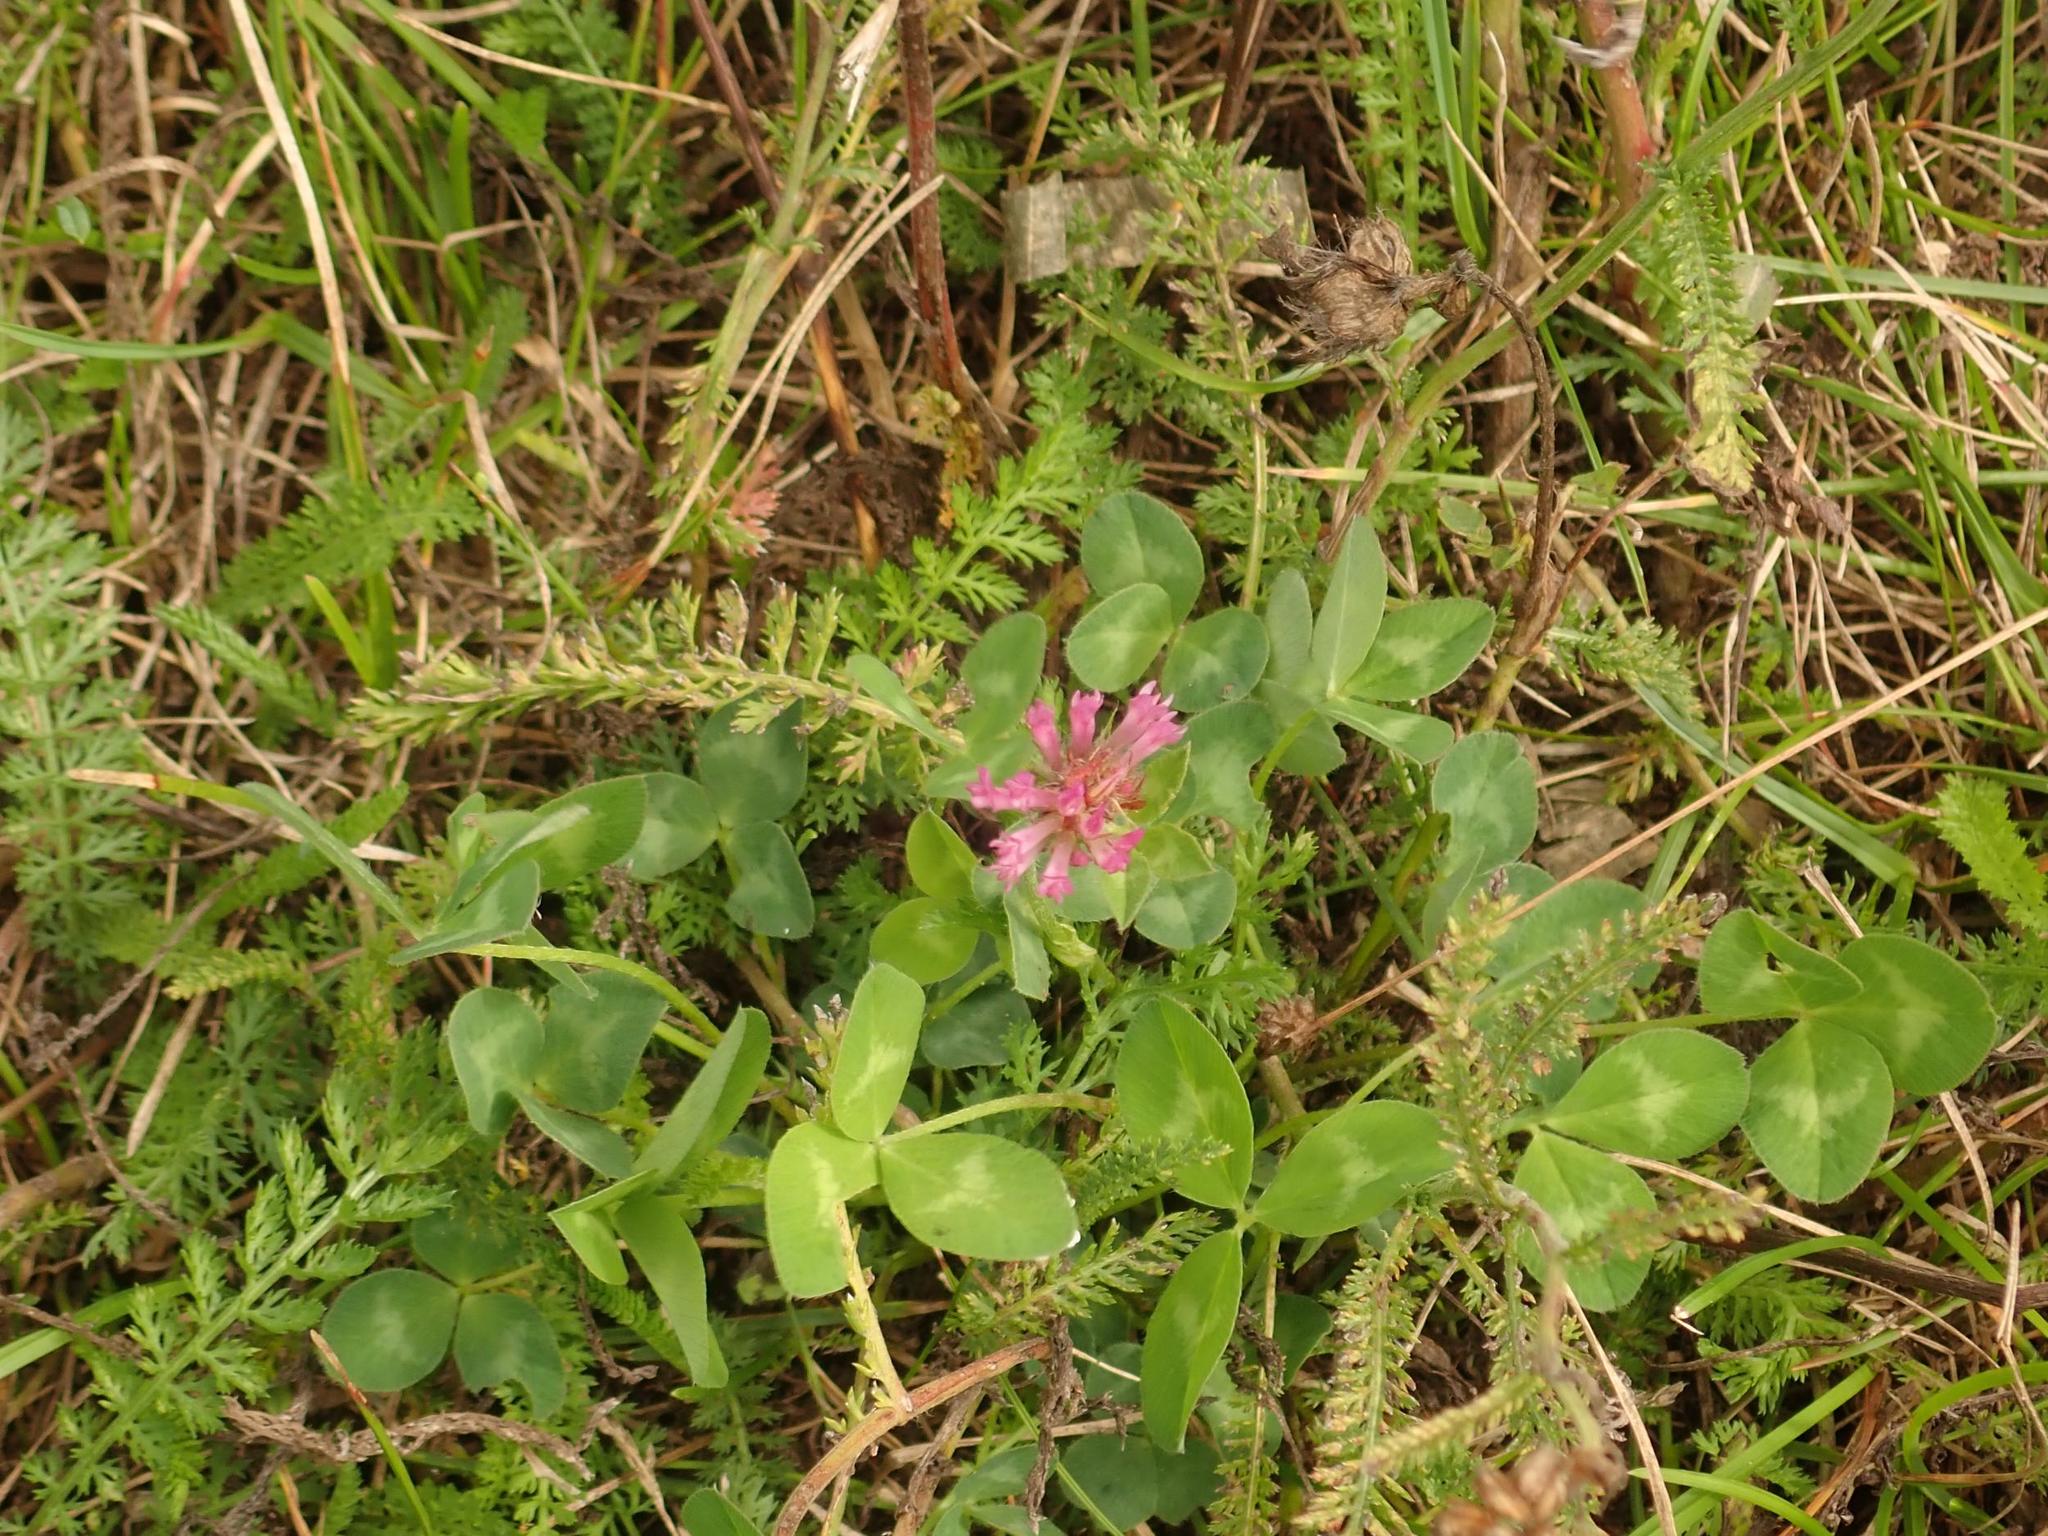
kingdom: Plantae
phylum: Tracheophyta
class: Magnoliopsida
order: Fabales
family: Fabaceae
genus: Trifolium
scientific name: Trifolium pratense
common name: Red clover
